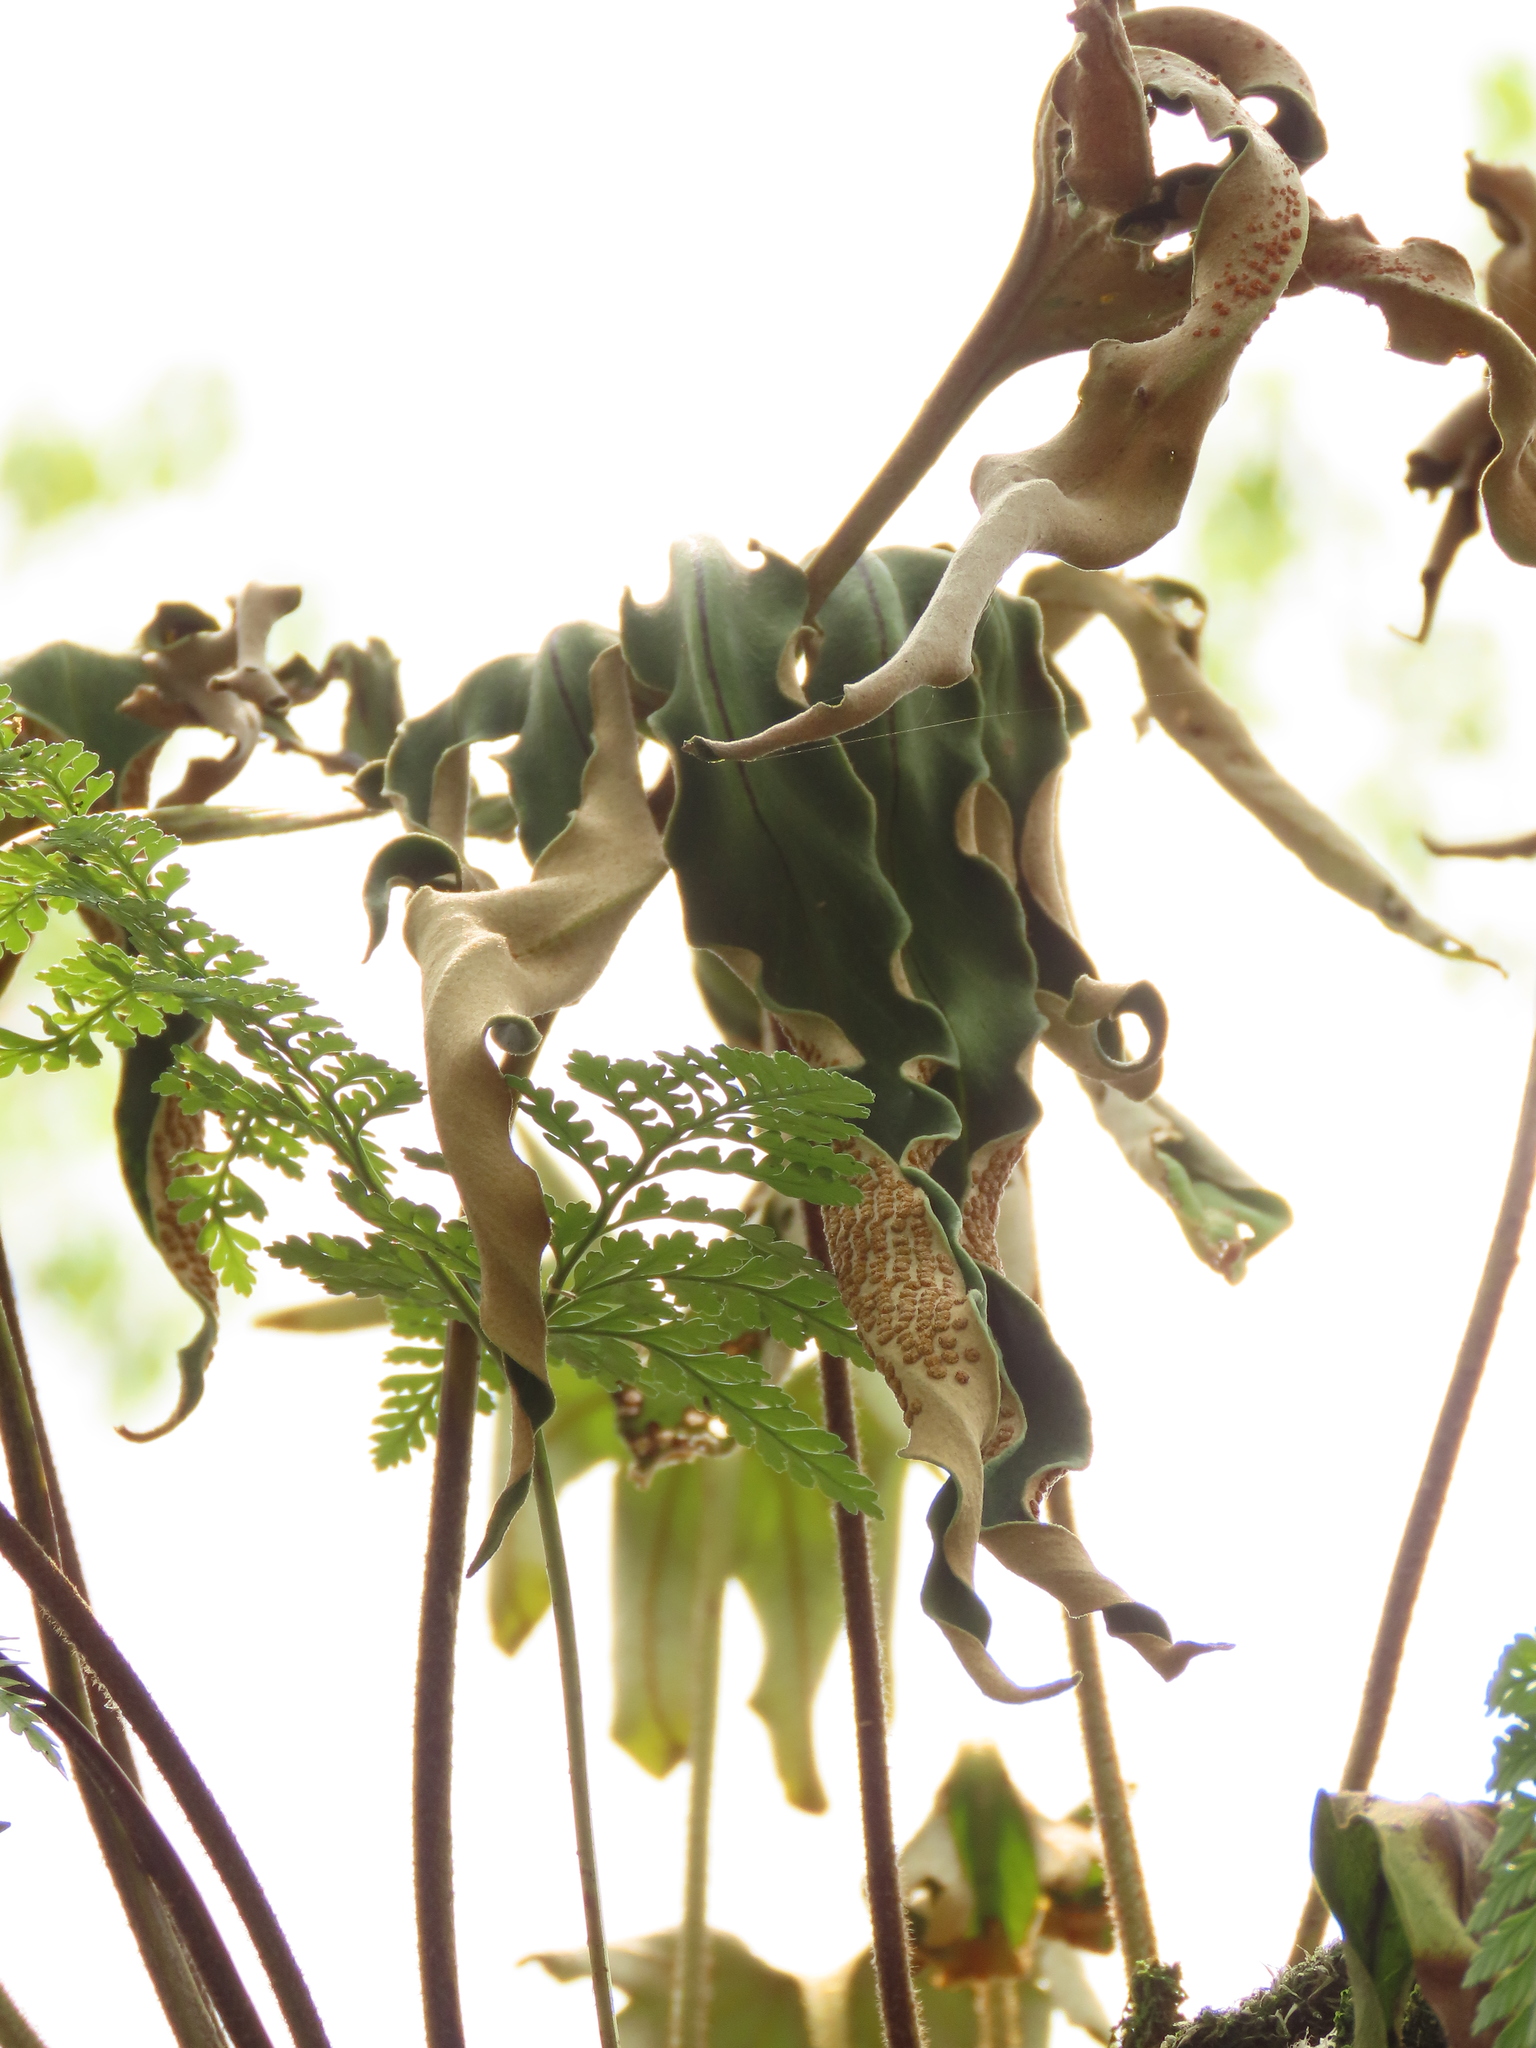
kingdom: Plantae
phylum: Tracheophyta
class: Polypodiopsida
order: Polypodiales
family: Polypodiaceae
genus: Pyrrosia
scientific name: Pyrrosia polydactyla
